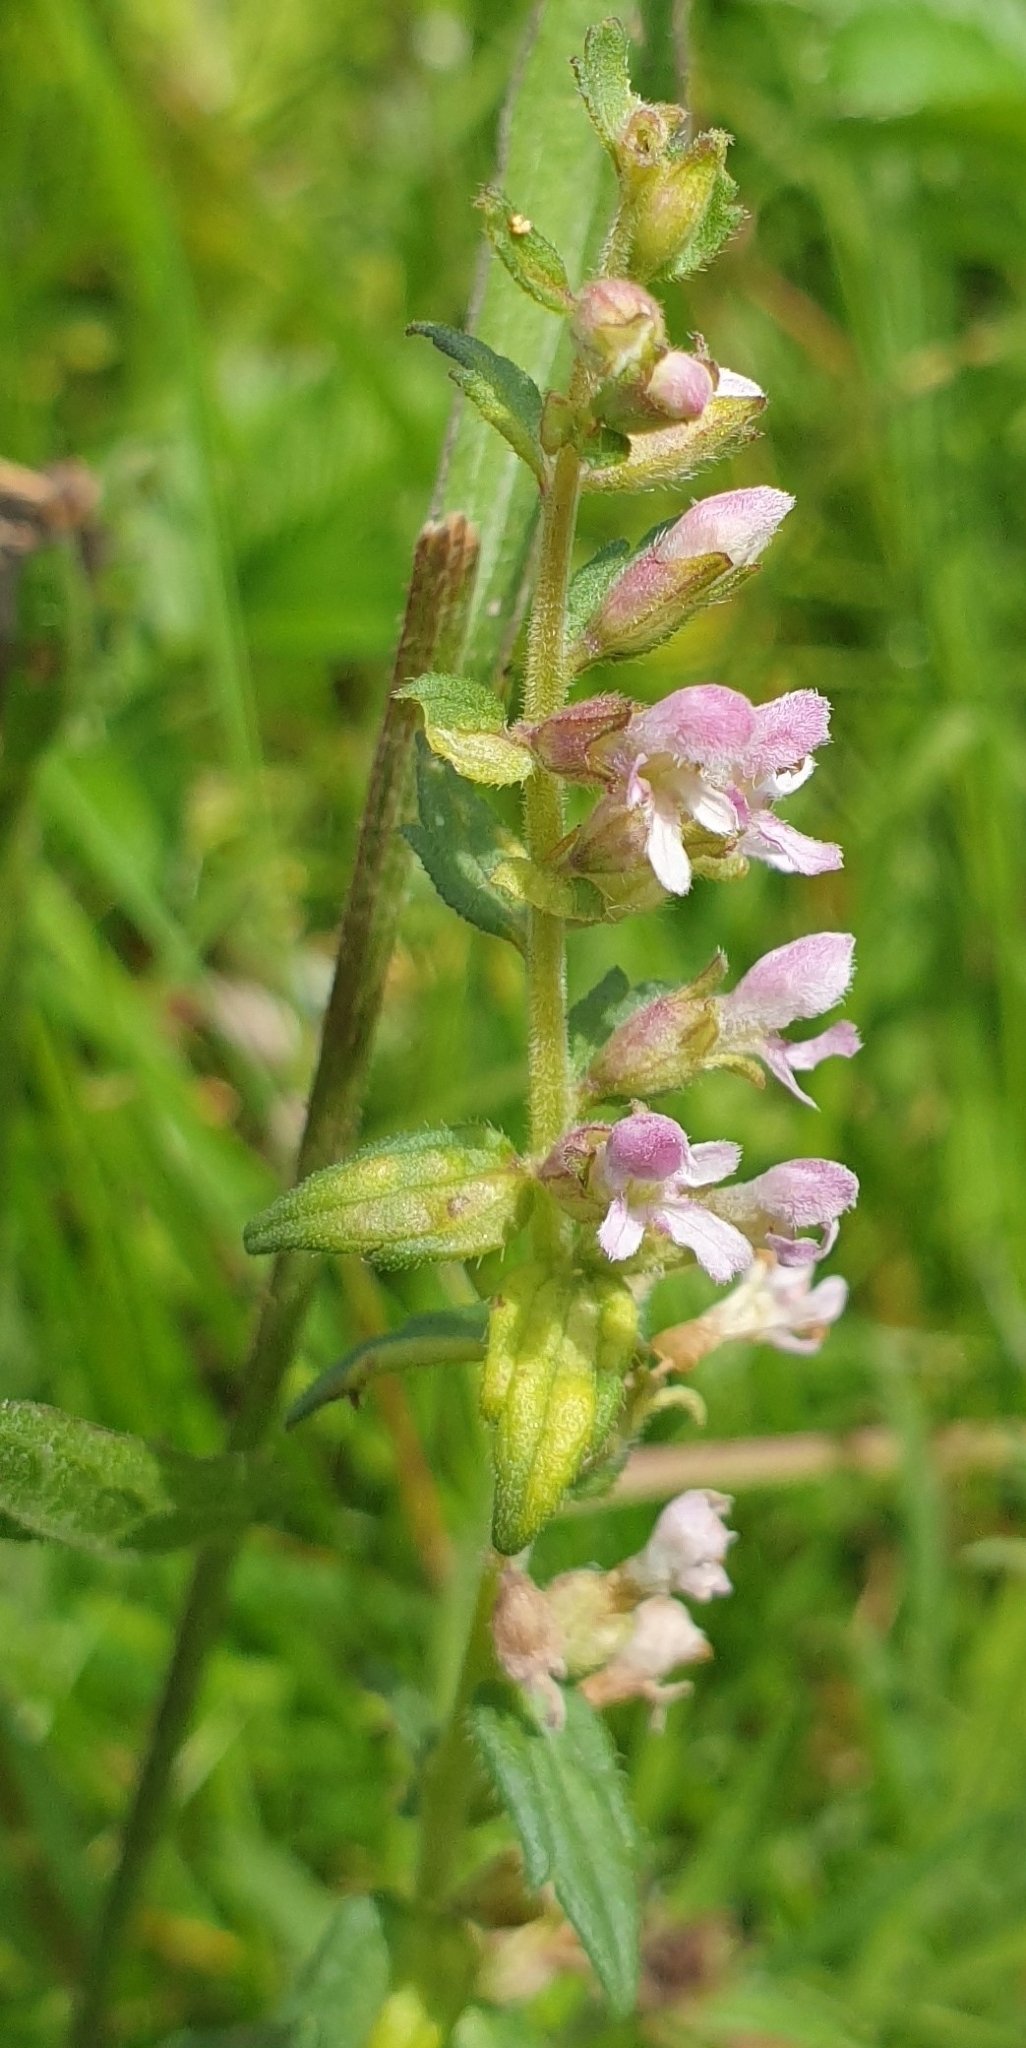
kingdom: Plantae
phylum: Tracheophyta
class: Magnoliopsida
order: Lamiales
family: Orobanchaceae
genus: Odontites
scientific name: Odontites vernus
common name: Red bartsia
